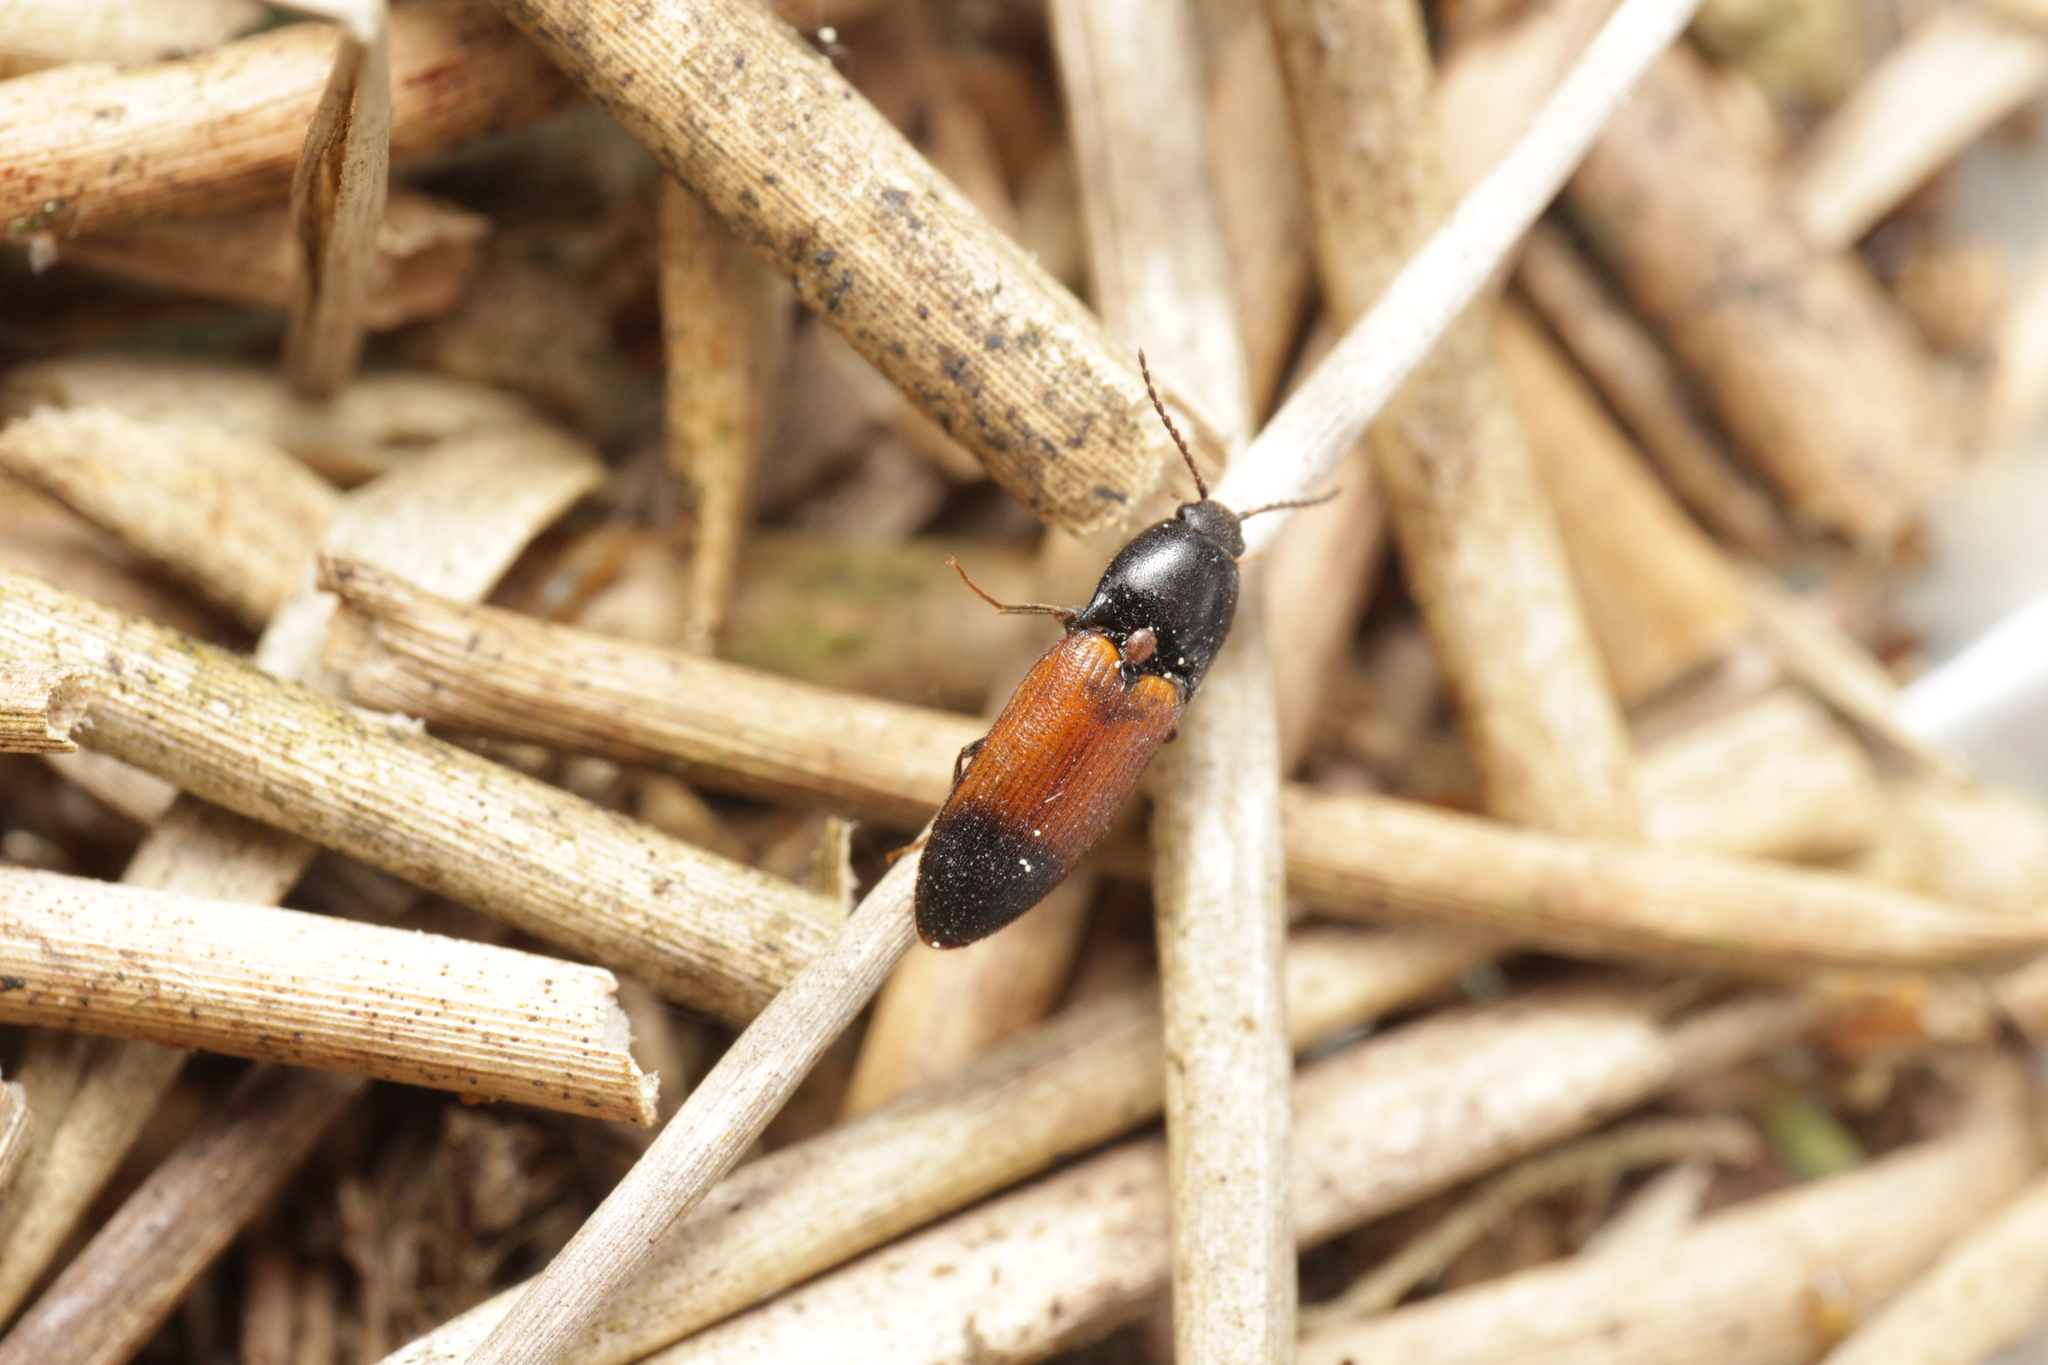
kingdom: Animalia
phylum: Arthropoda
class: Insecta
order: Coleoptera
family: Elateridae
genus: Ampedus
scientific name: Ampedus balteatus
